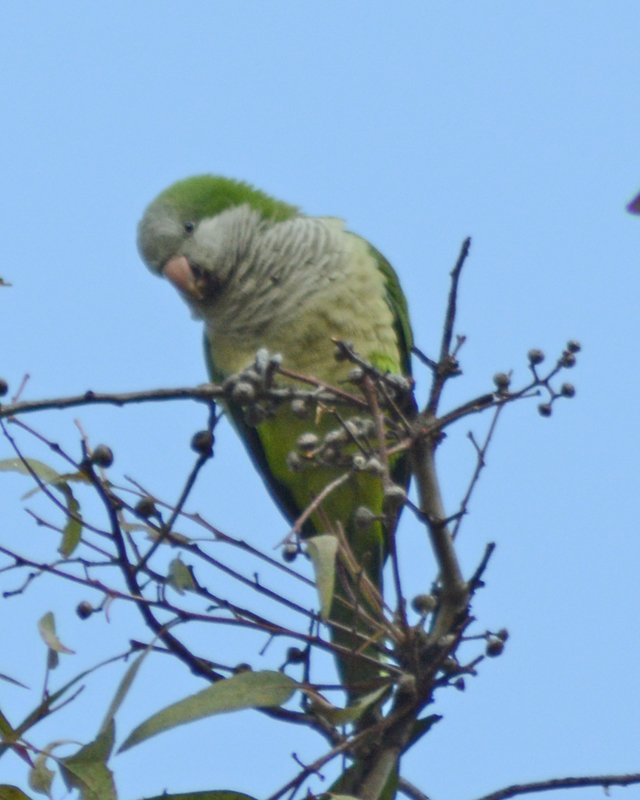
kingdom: Animalia
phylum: Chordata
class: Aves
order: Psittaciformes
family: Psittacidae
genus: Myiopsitta
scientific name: Myiopsitta monachus
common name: Monk parakeet
